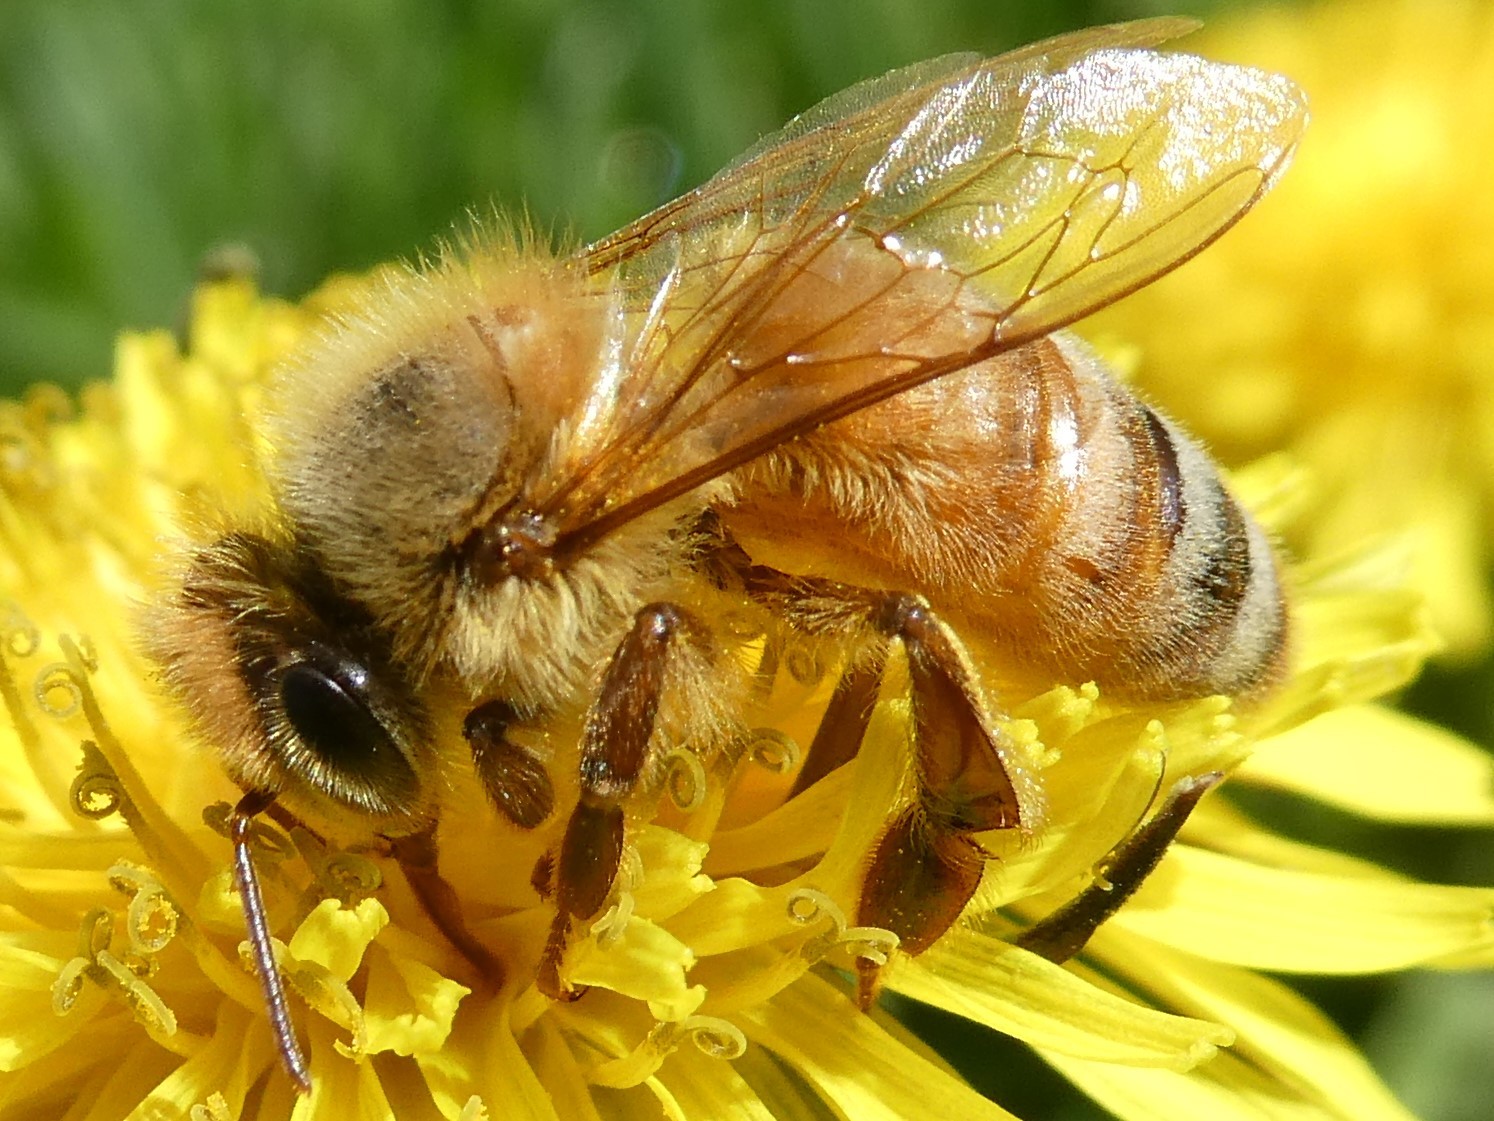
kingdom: Animalia
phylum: Arthropoda
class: Insecta
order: Hymenoptera
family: Apidae
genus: Apis
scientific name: Apis mellifera
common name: Honey bee
